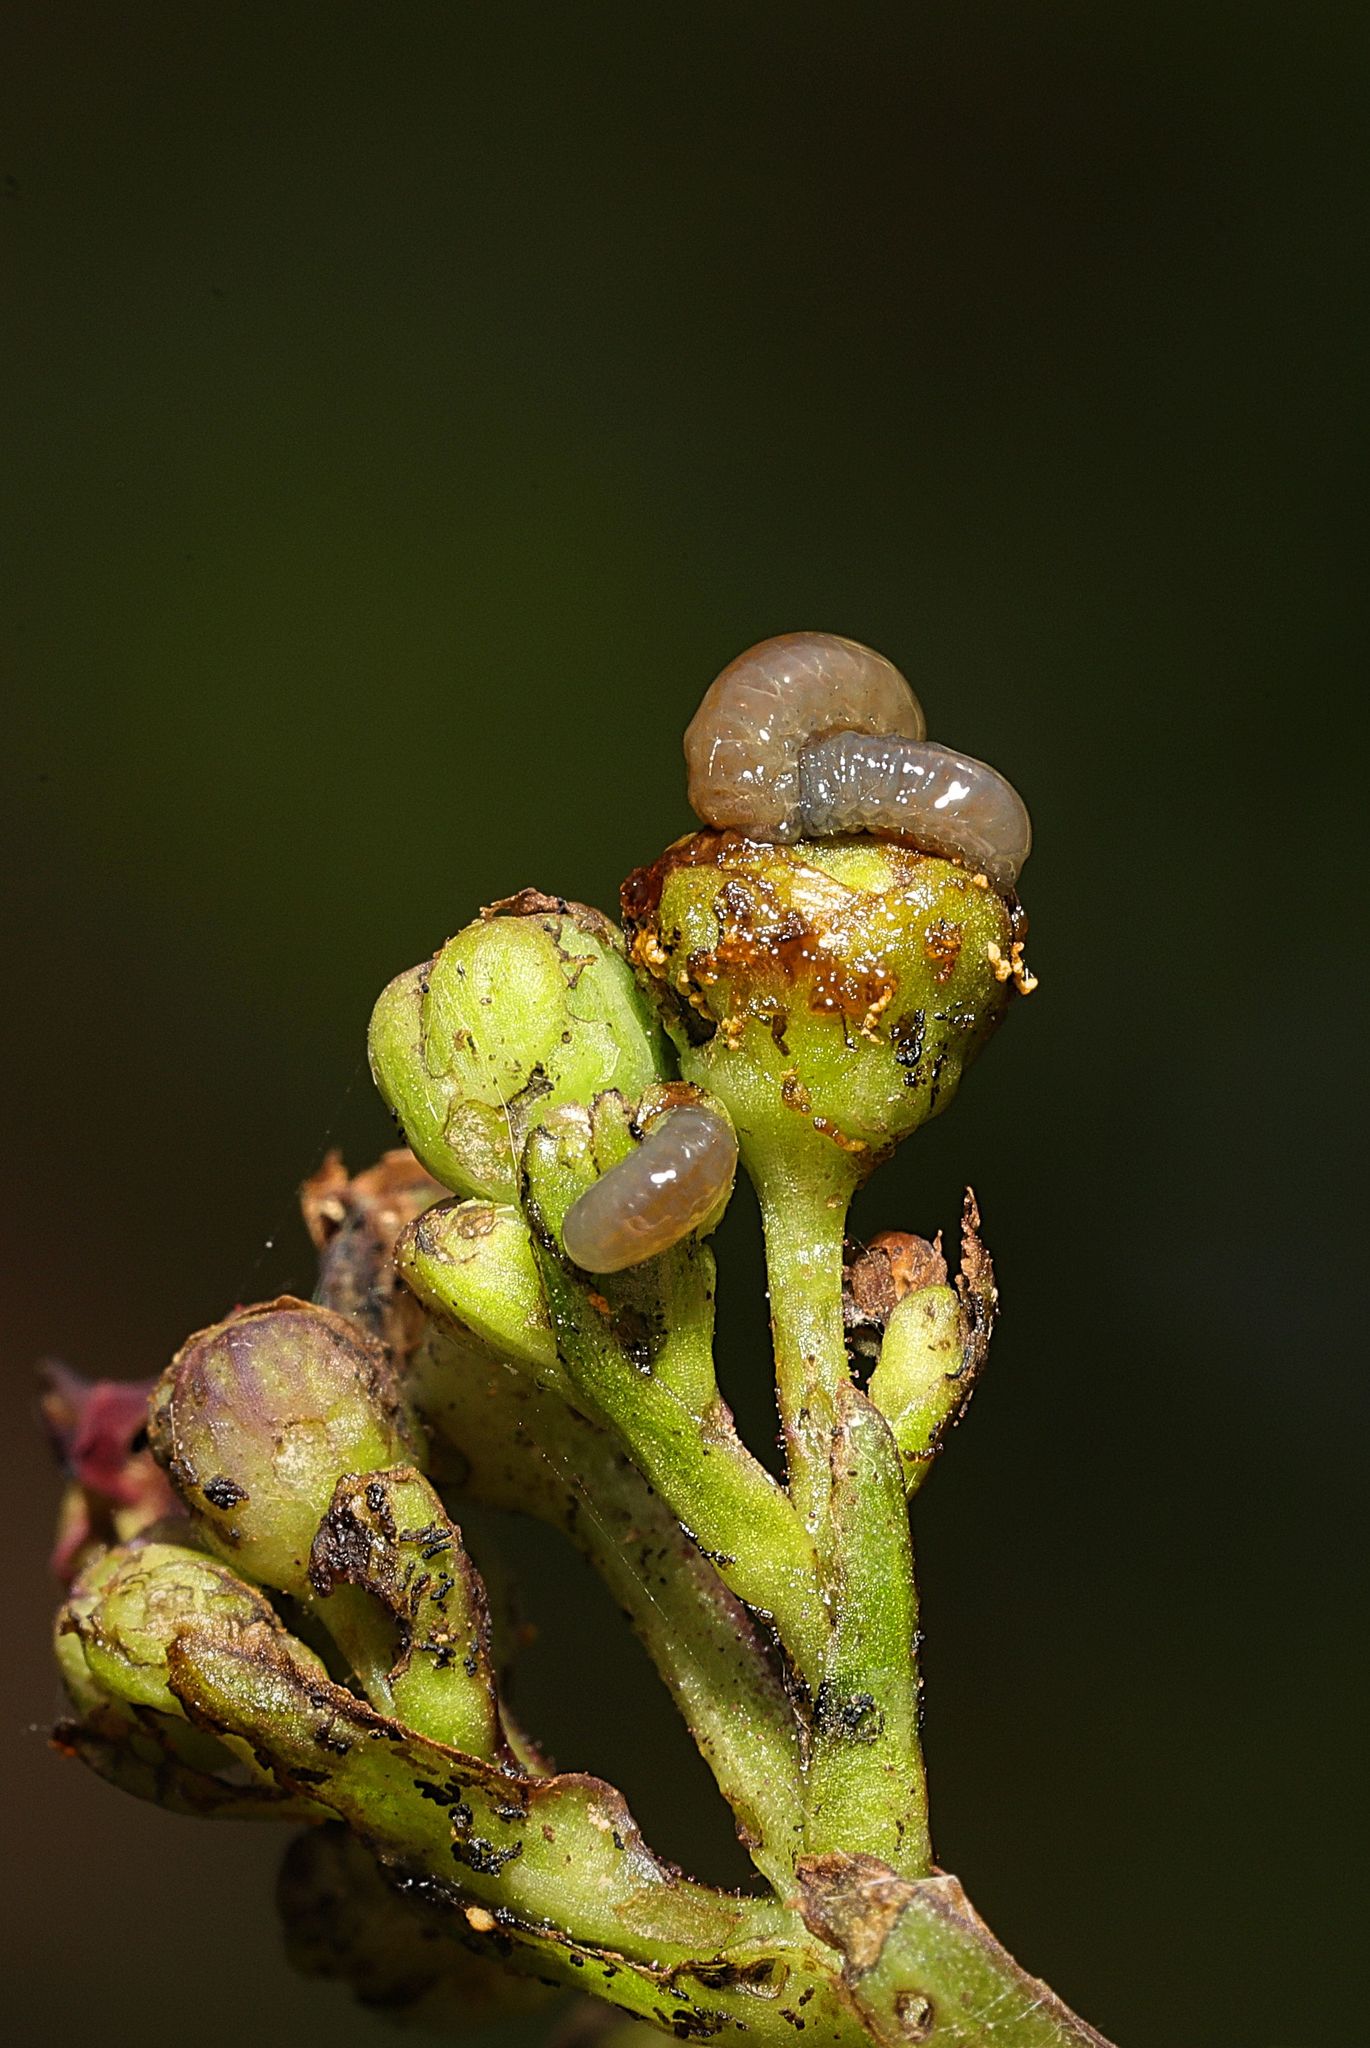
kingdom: Animalia
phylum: Arthropoda
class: Insecta
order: Coleoptera
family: Curculionidae
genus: Cionus
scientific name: Cionus scrophulariae
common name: Common figwort weevil
